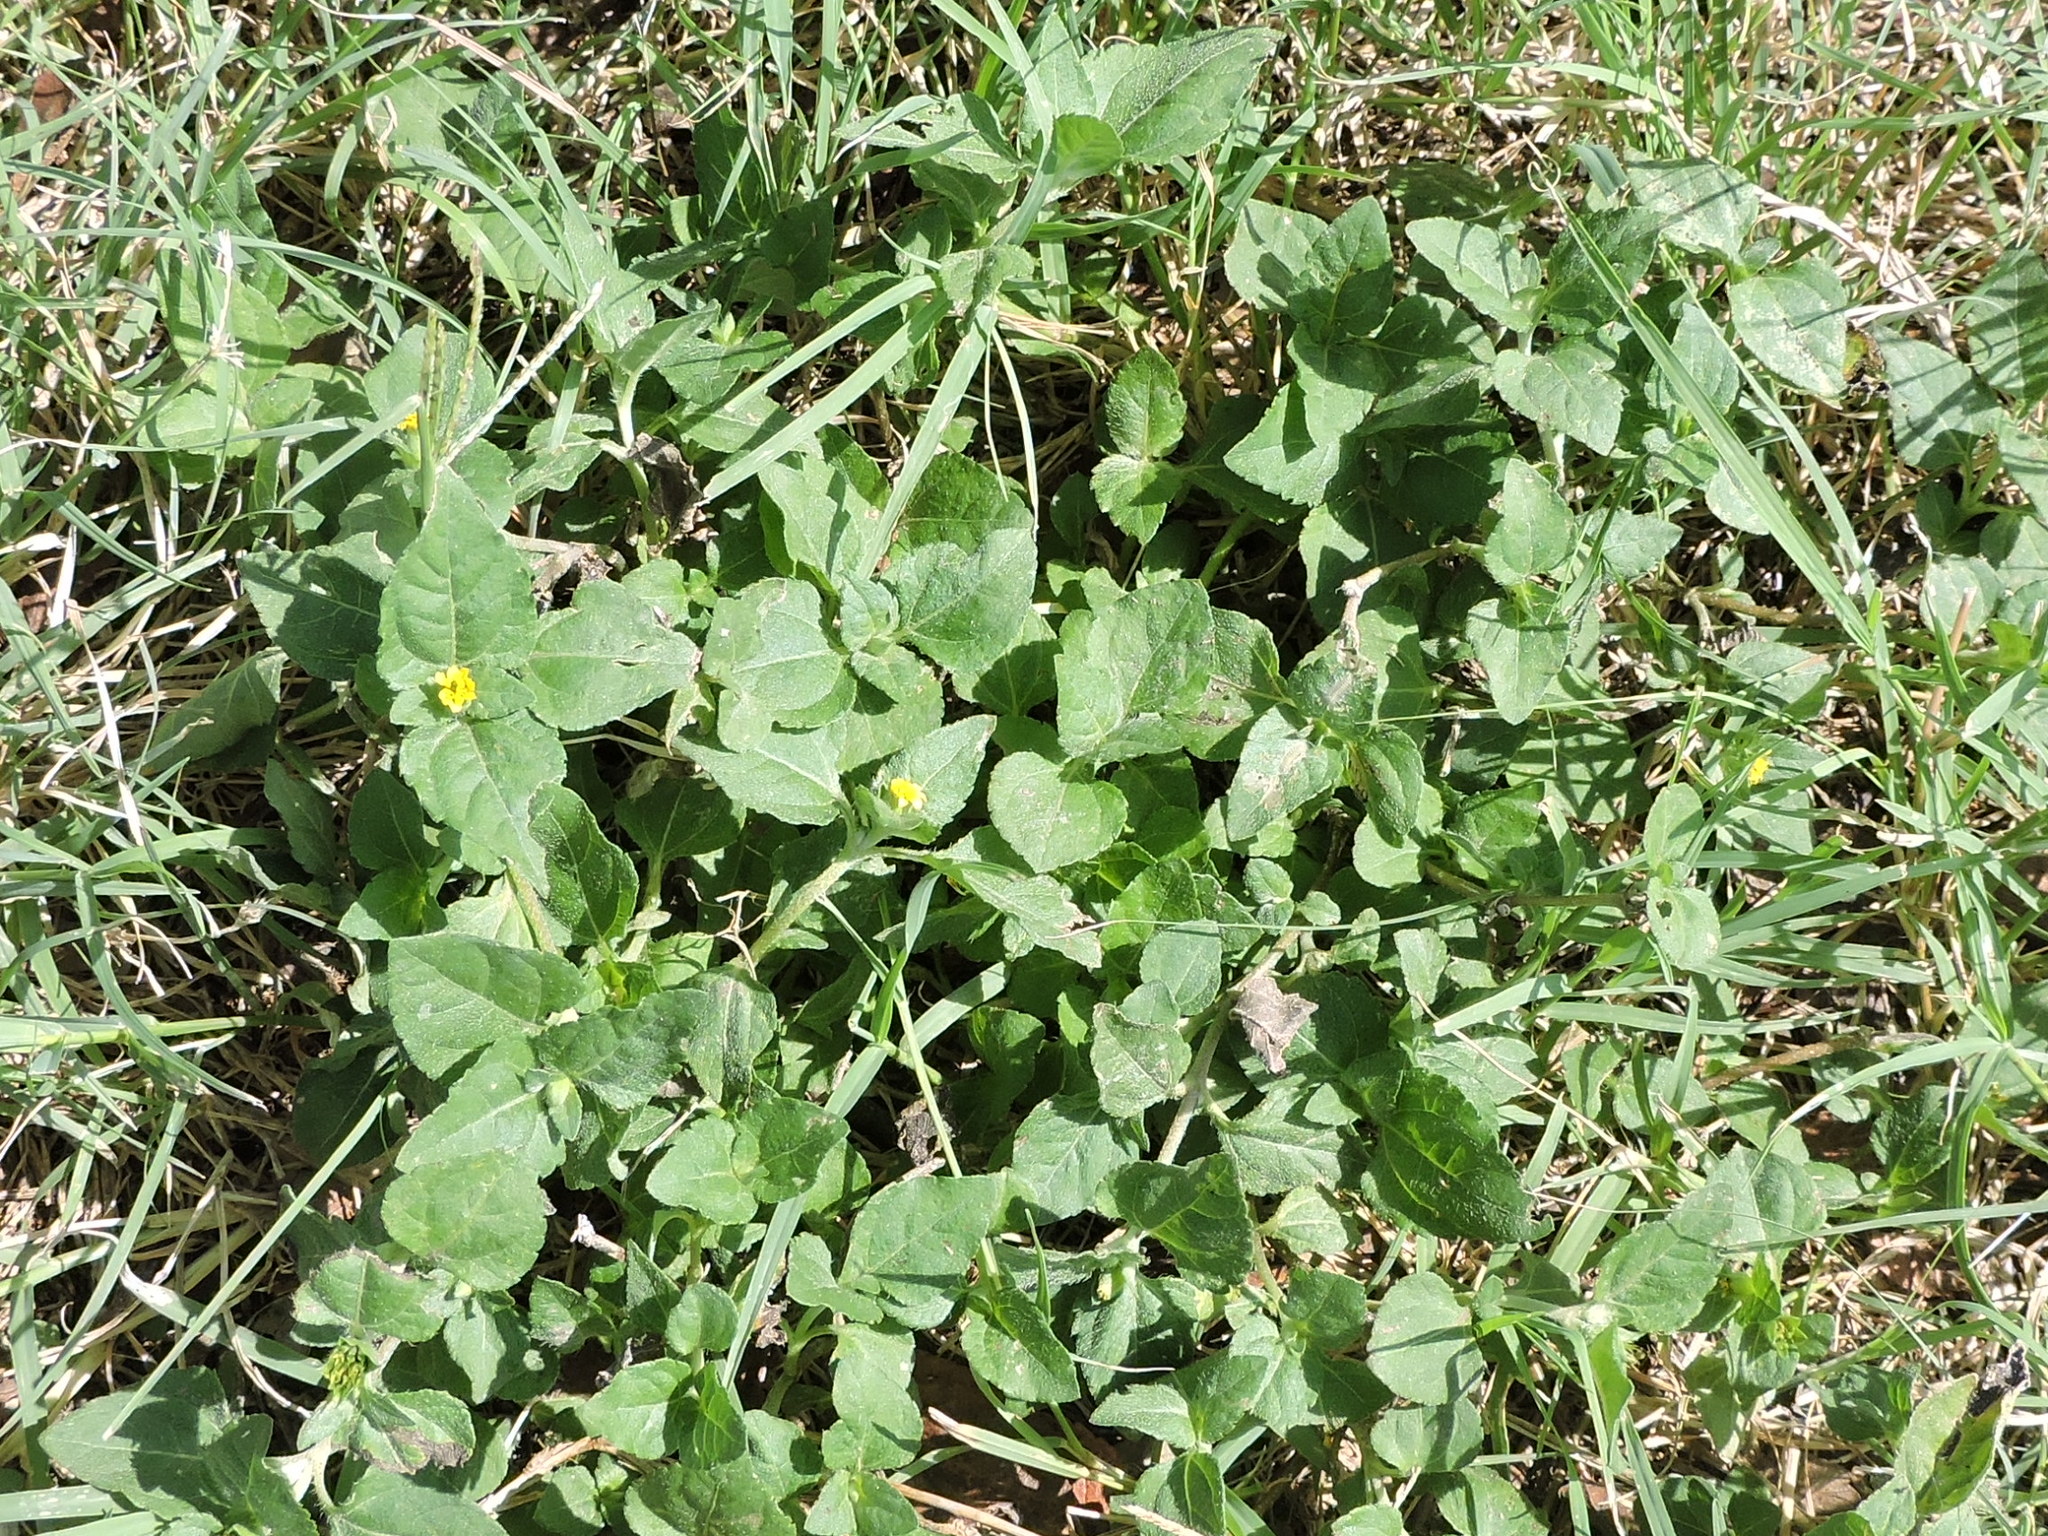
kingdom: Plantae
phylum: Tracheophyta
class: Magnoliopsida
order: Asterales
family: Asteraceae
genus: Calyptocarpus
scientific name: Calyptocarpus vialis
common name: Straggler daisy
